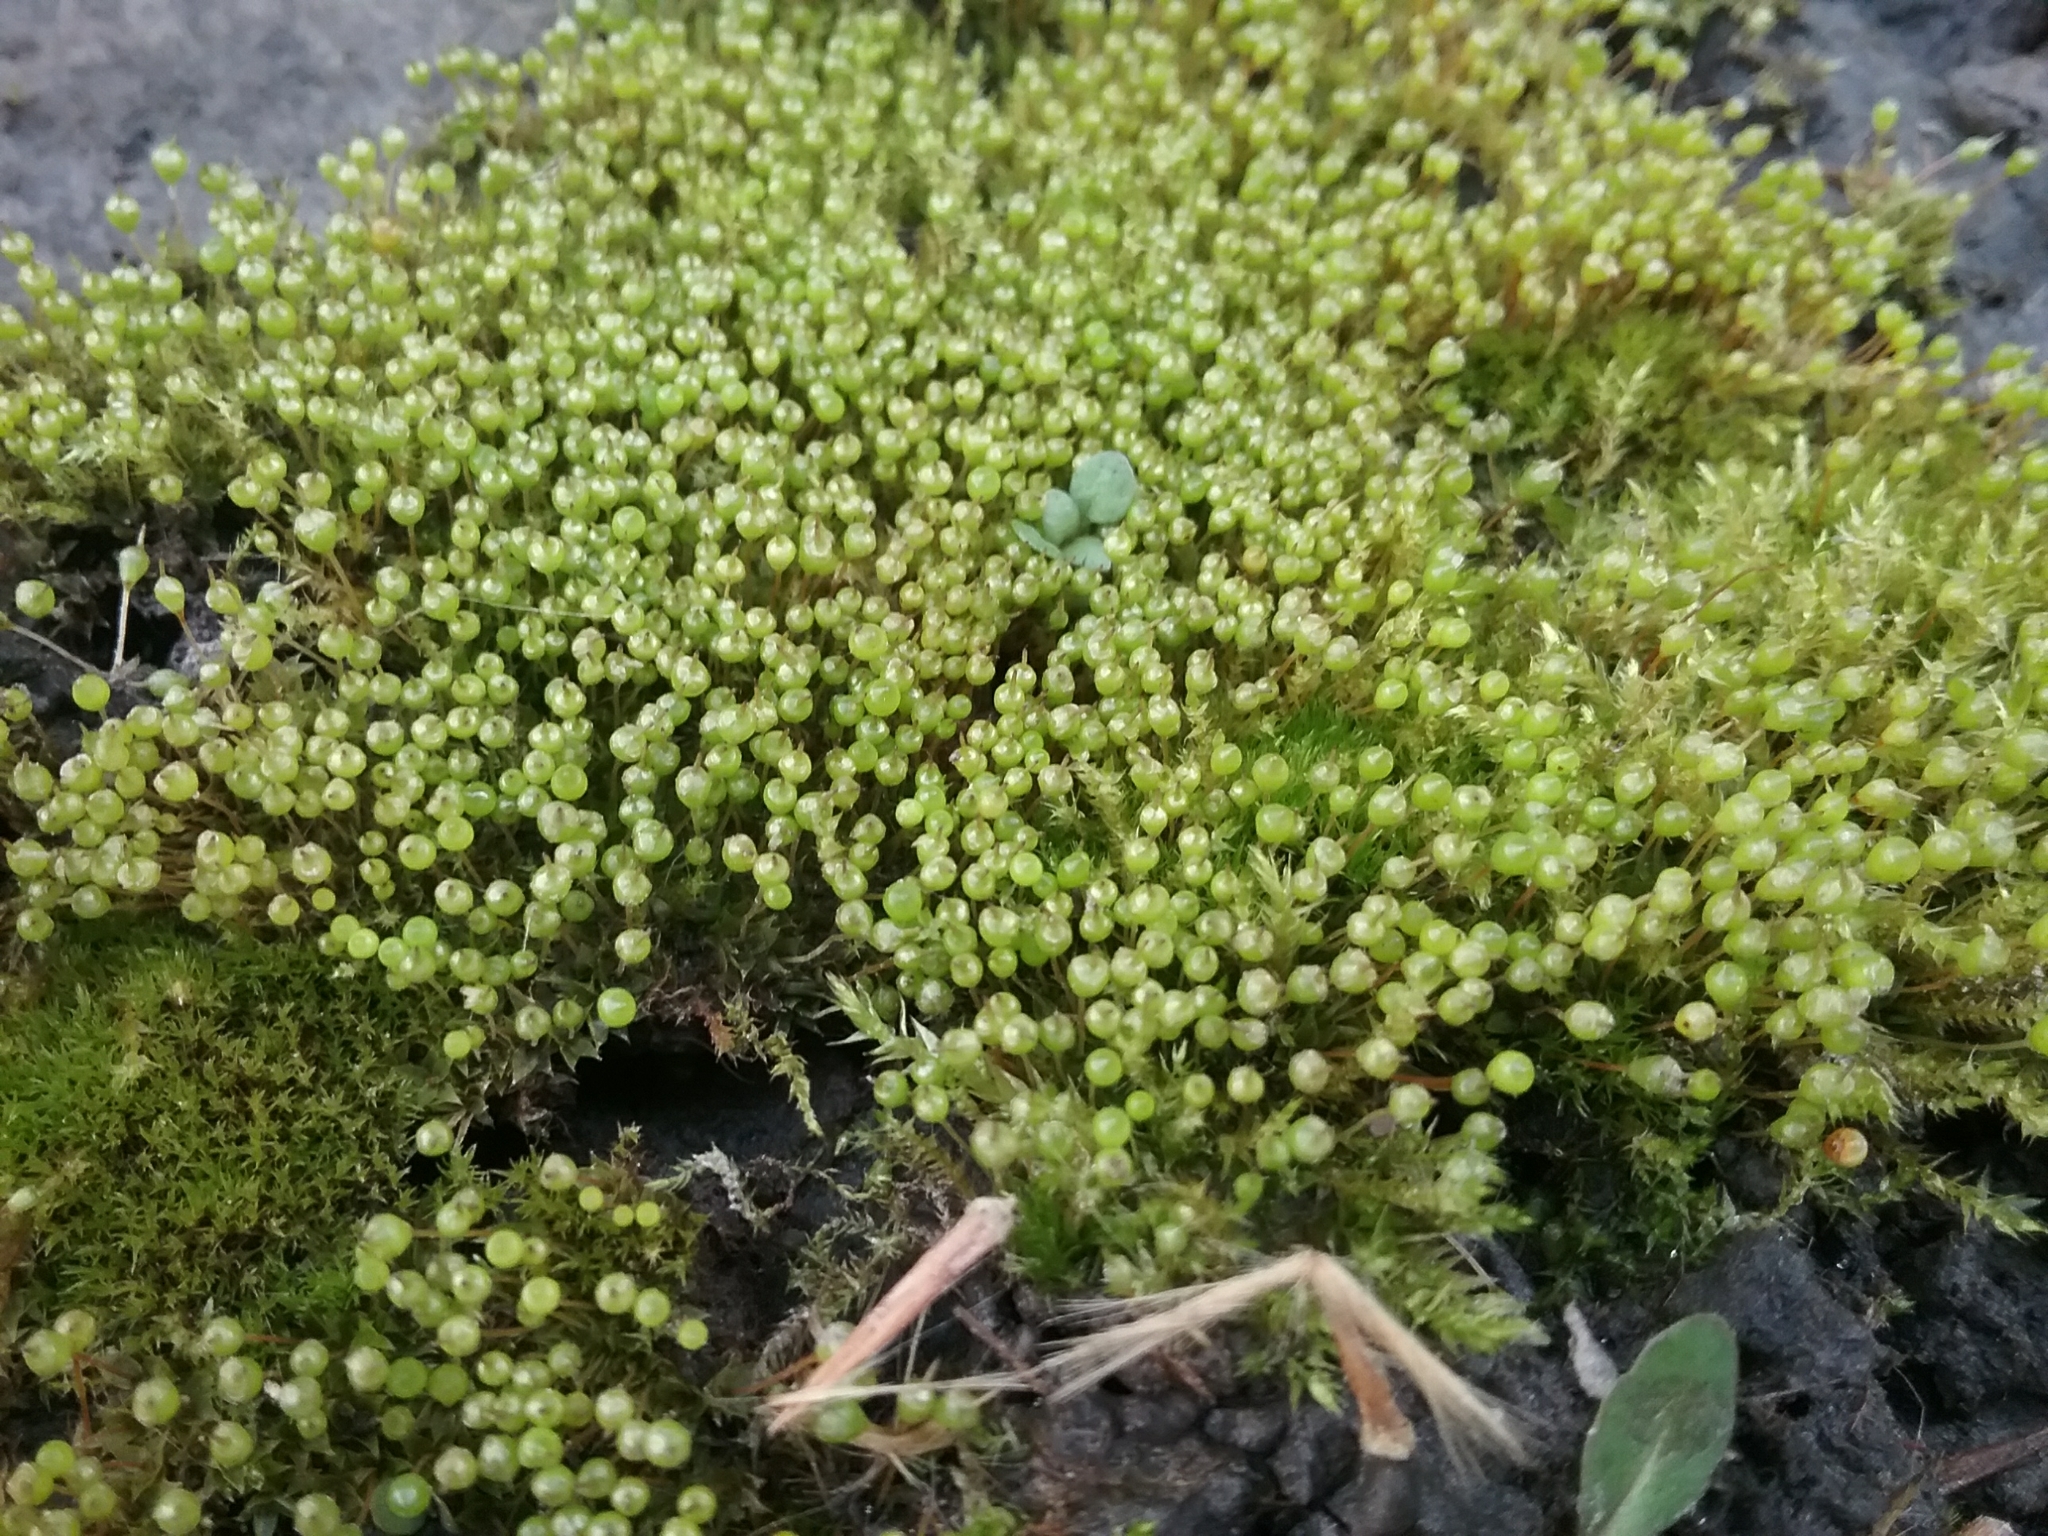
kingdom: Plantae
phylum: Bryophyta
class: Bryopsida
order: Funariales
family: Funariaceae
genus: Physcomitrium
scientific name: Physcomitrium pyriforme
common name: Common bladder-moss
